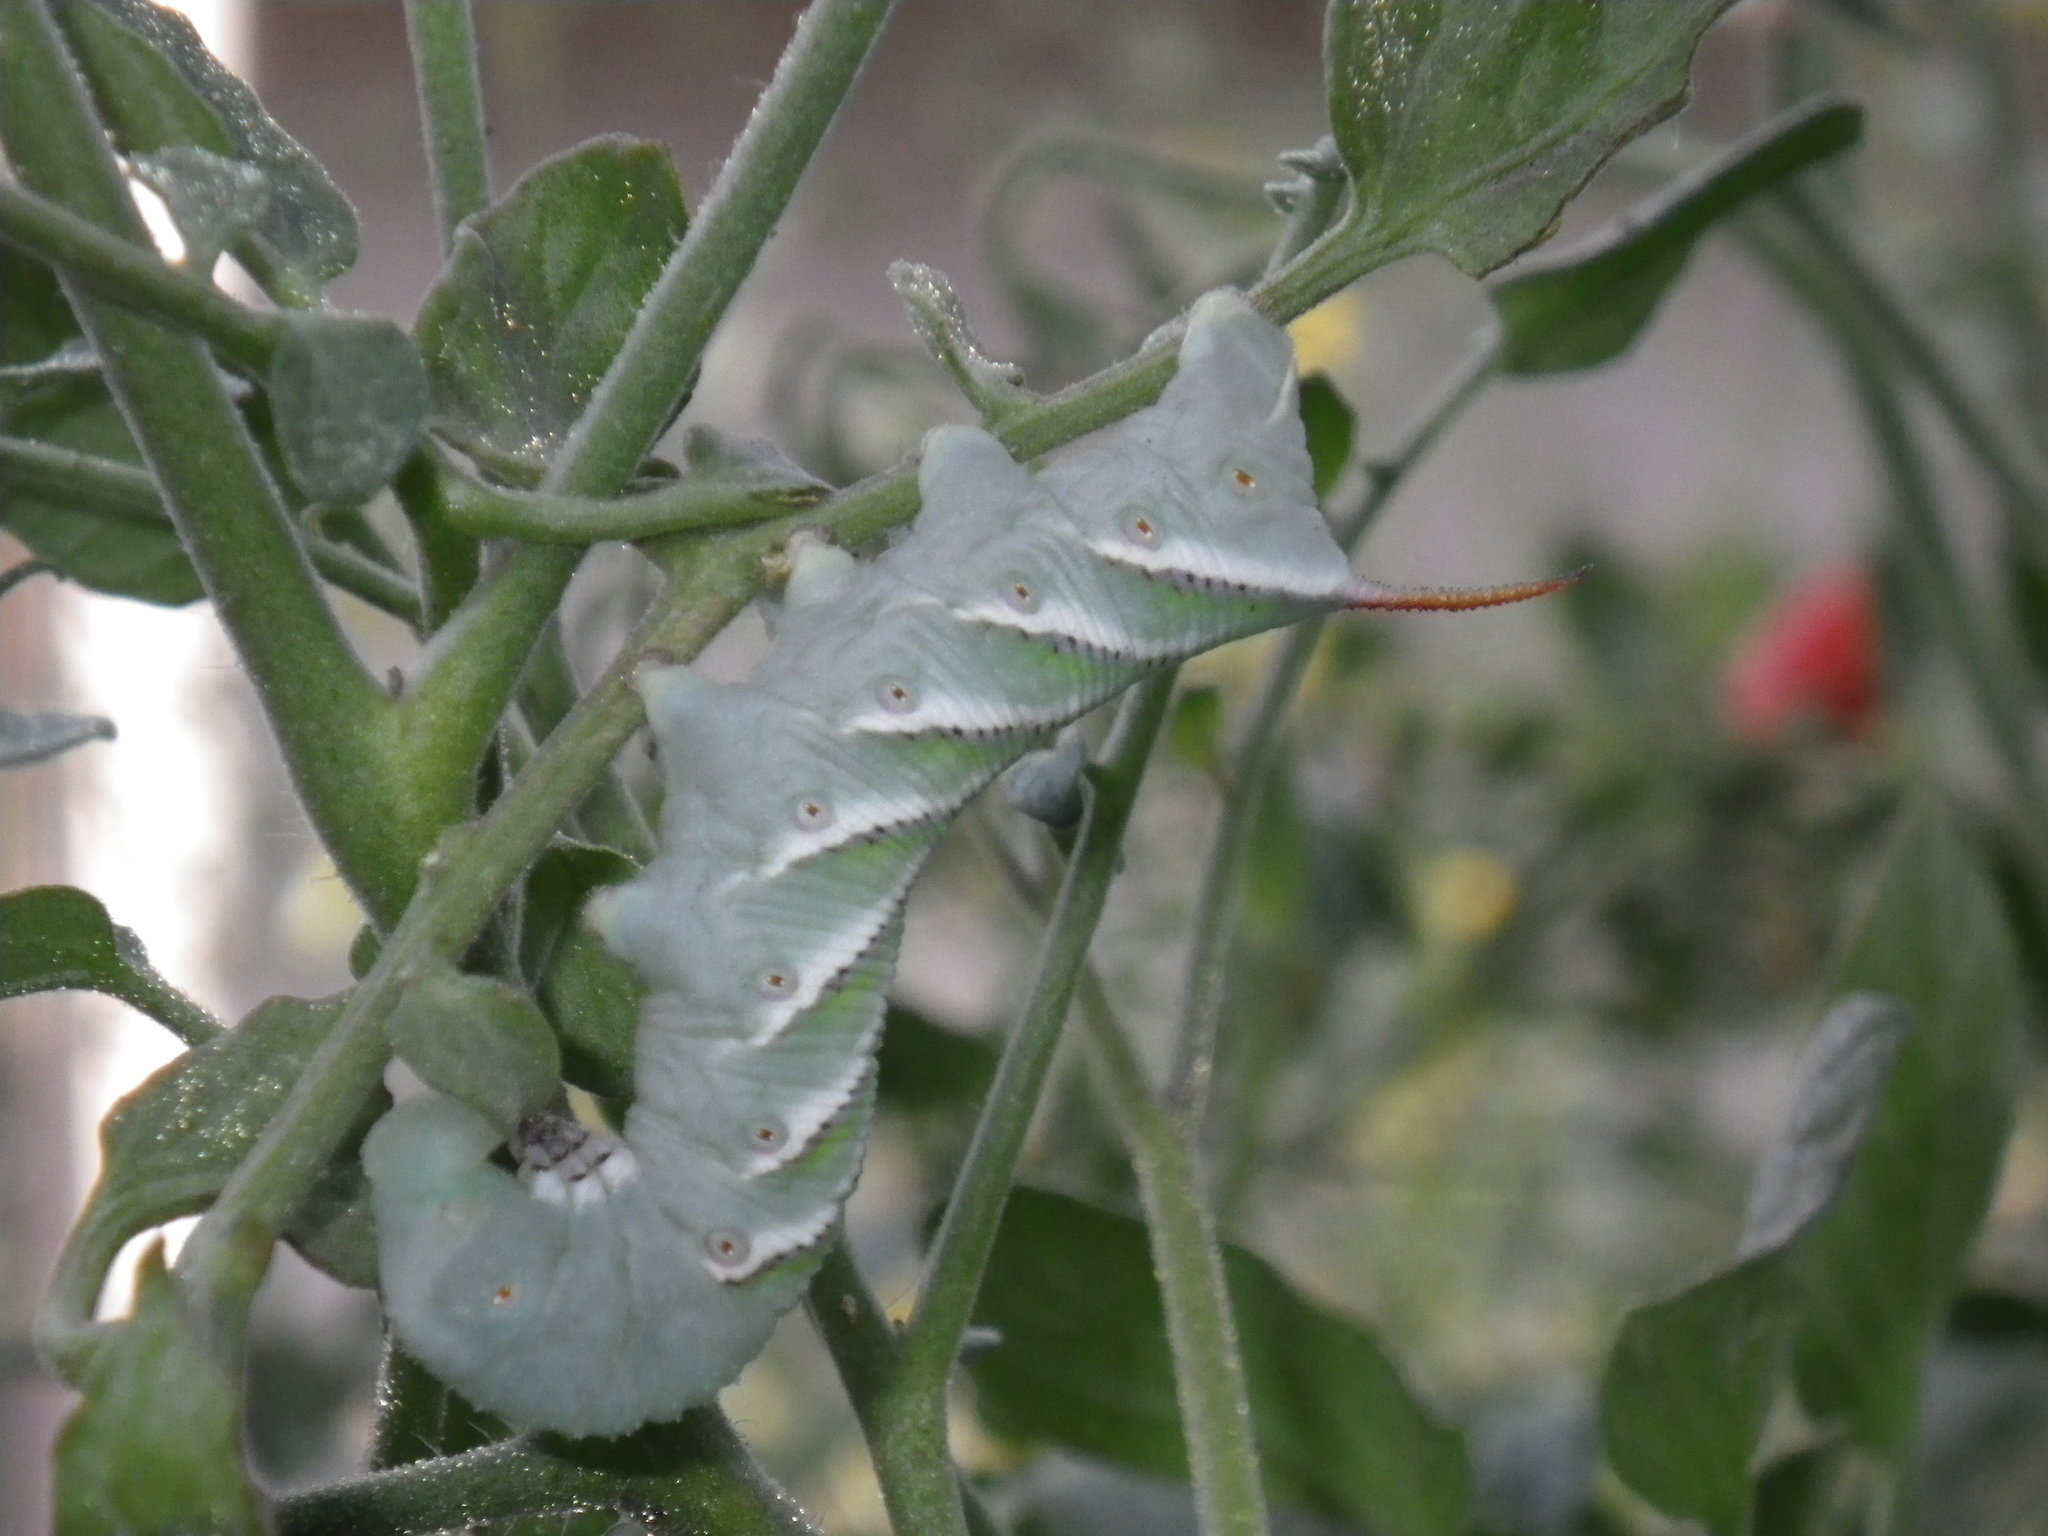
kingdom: Animalia
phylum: Arthropoda
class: Insecta
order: Lepidoptera
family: Sphingidae
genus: Manduca
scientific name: Manduca sexta
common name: Carolina sphinx
